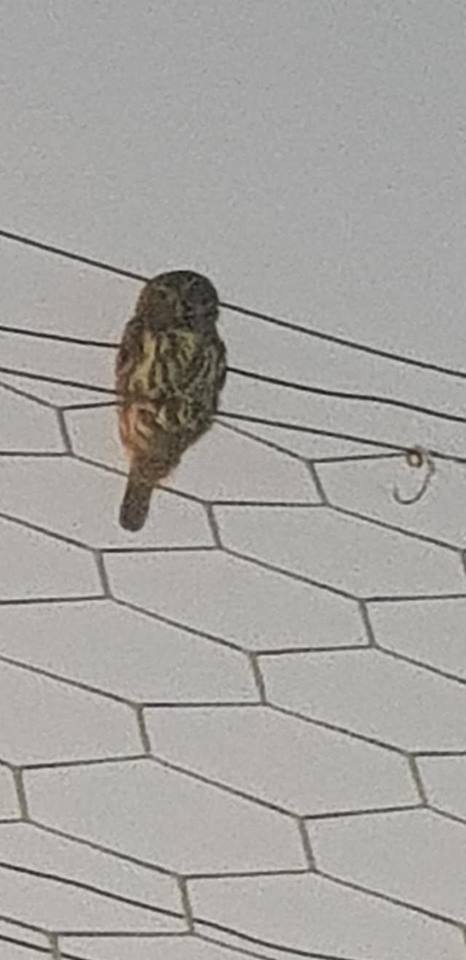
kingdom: Animalia
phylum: Chordata
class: Aves
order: Strigiformes
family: Strigidae
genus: Glaucidium
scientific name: Glaucidium brasilianum
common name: Ferruginous pygmy-owl
